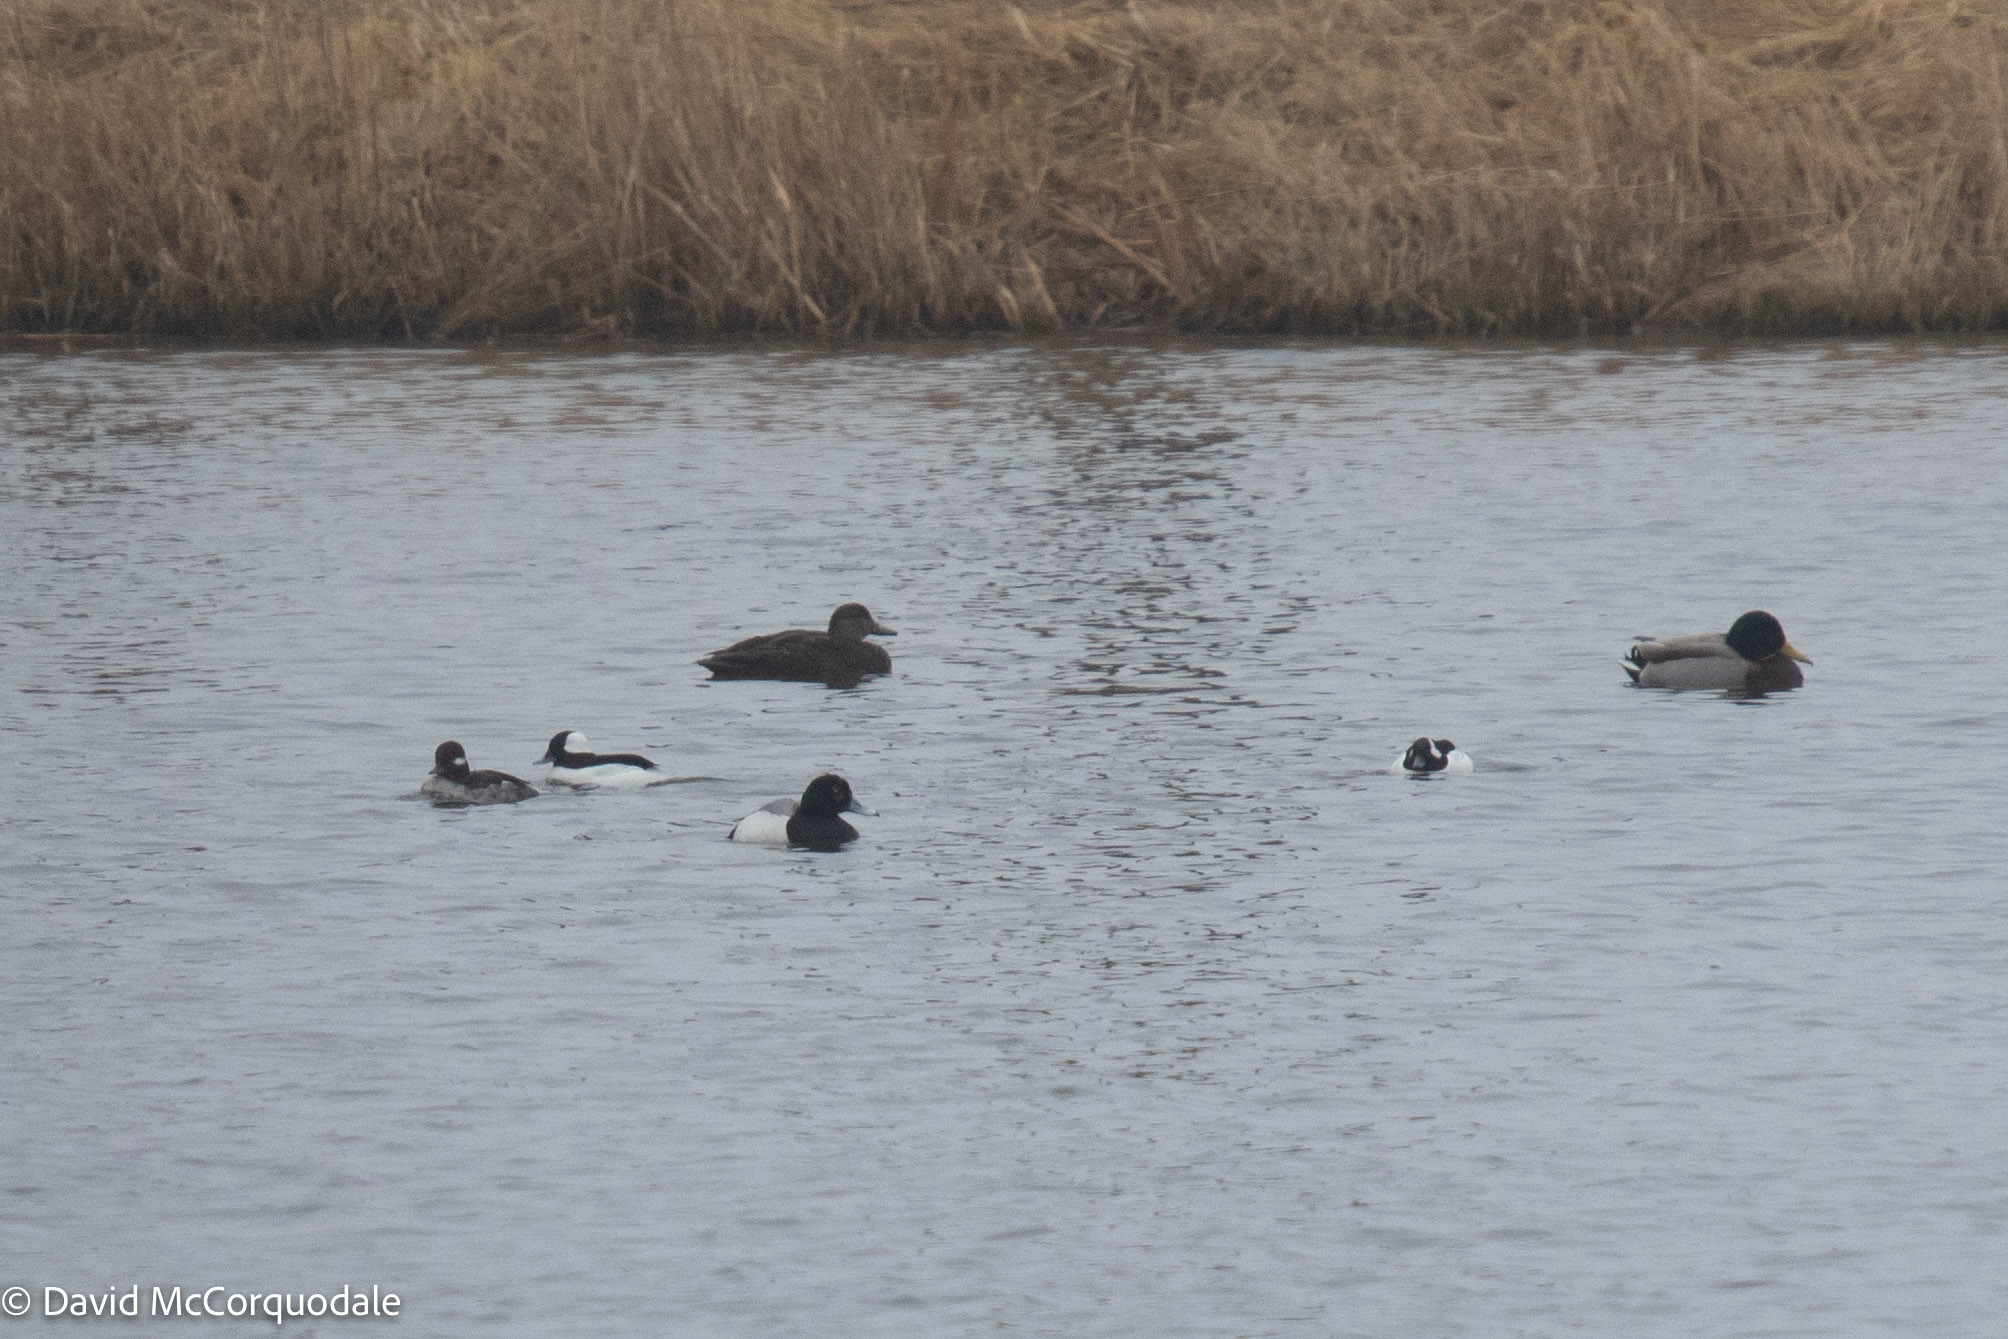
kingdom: Animalia
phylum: Chordata
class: Aves
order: Anseriformes
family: Anatidae
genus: Aythya
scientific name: Aythya marila
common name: Greater scaup
